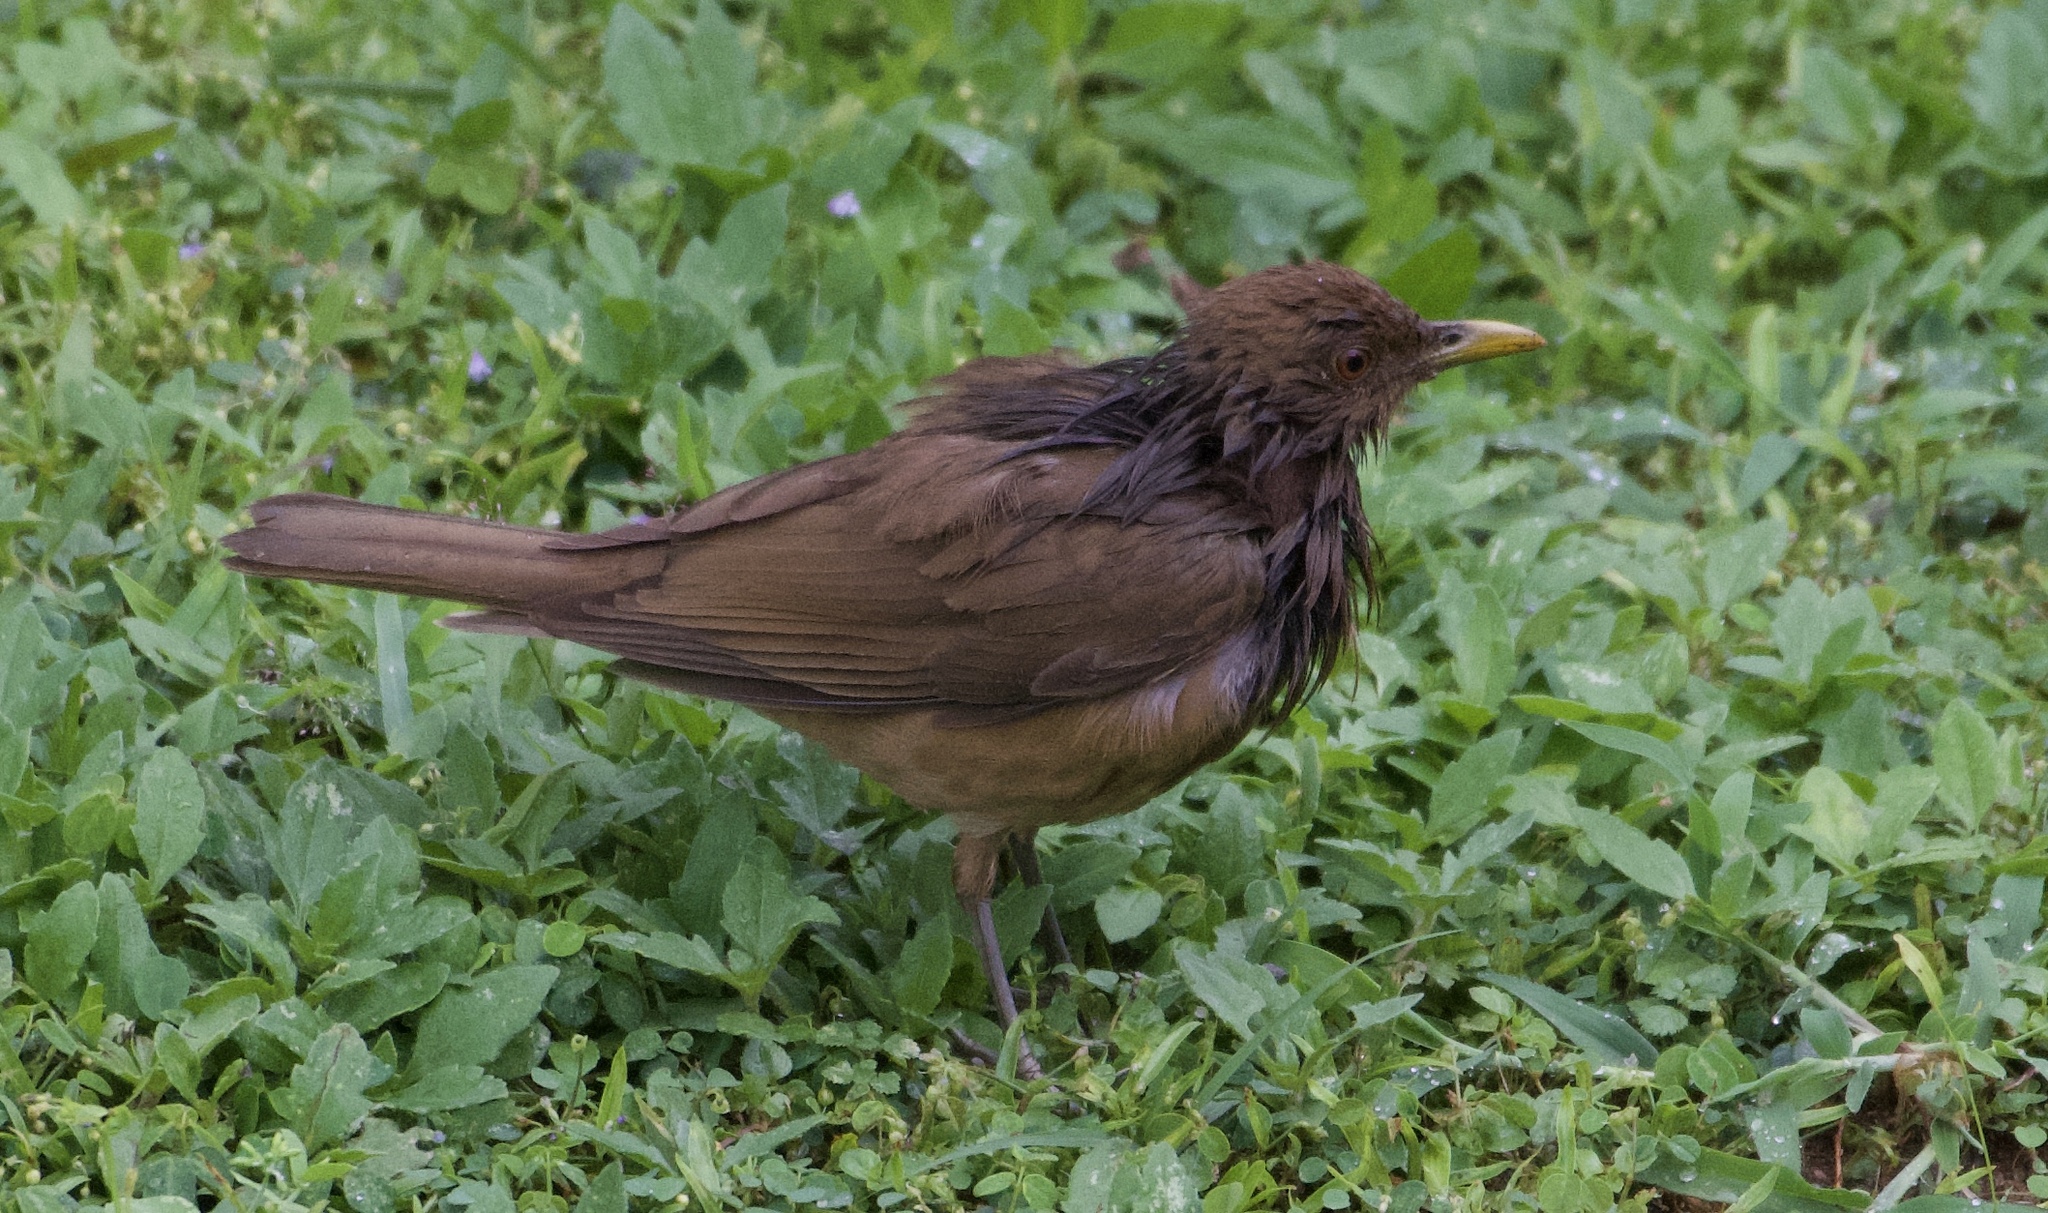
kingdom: Animalia
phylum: Chordata
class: Aves
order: Passeriformes
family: Turdidae
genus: Turdus
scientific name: Turdus grayi
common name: Clay-colored thrush
